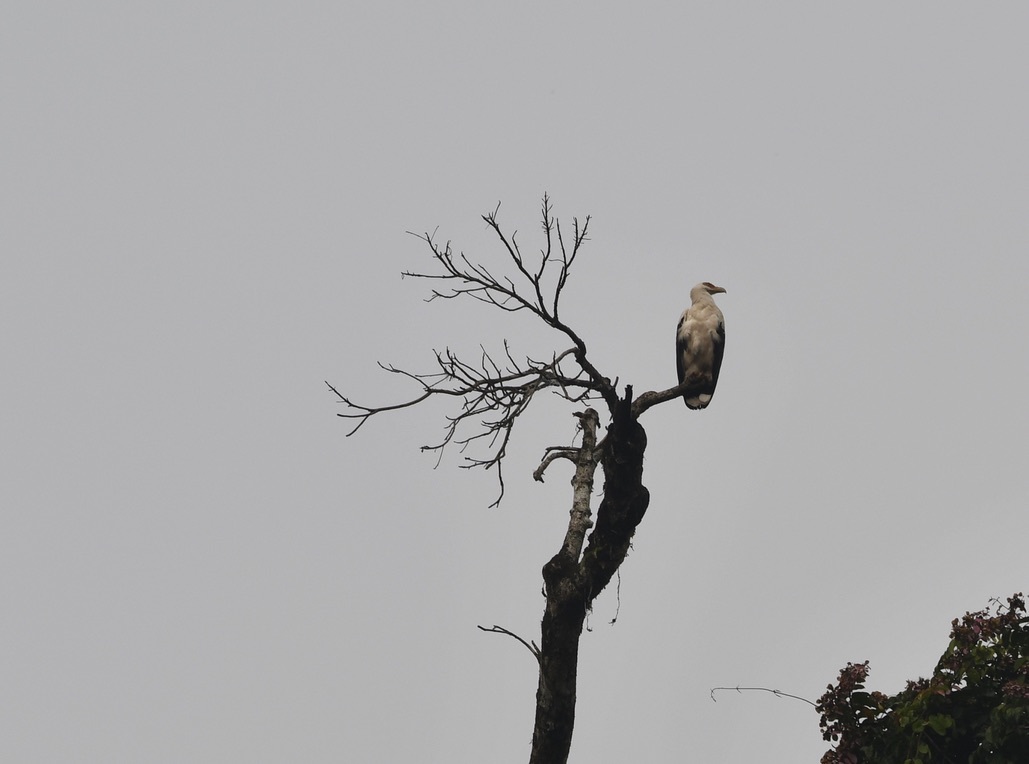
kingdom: Animalia
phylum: Chordata
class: Aves
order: Accipitriformes
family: Accipitridae
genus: Gypohierax
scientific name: Gypohierax angolensis
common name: Palm-nut vulture
